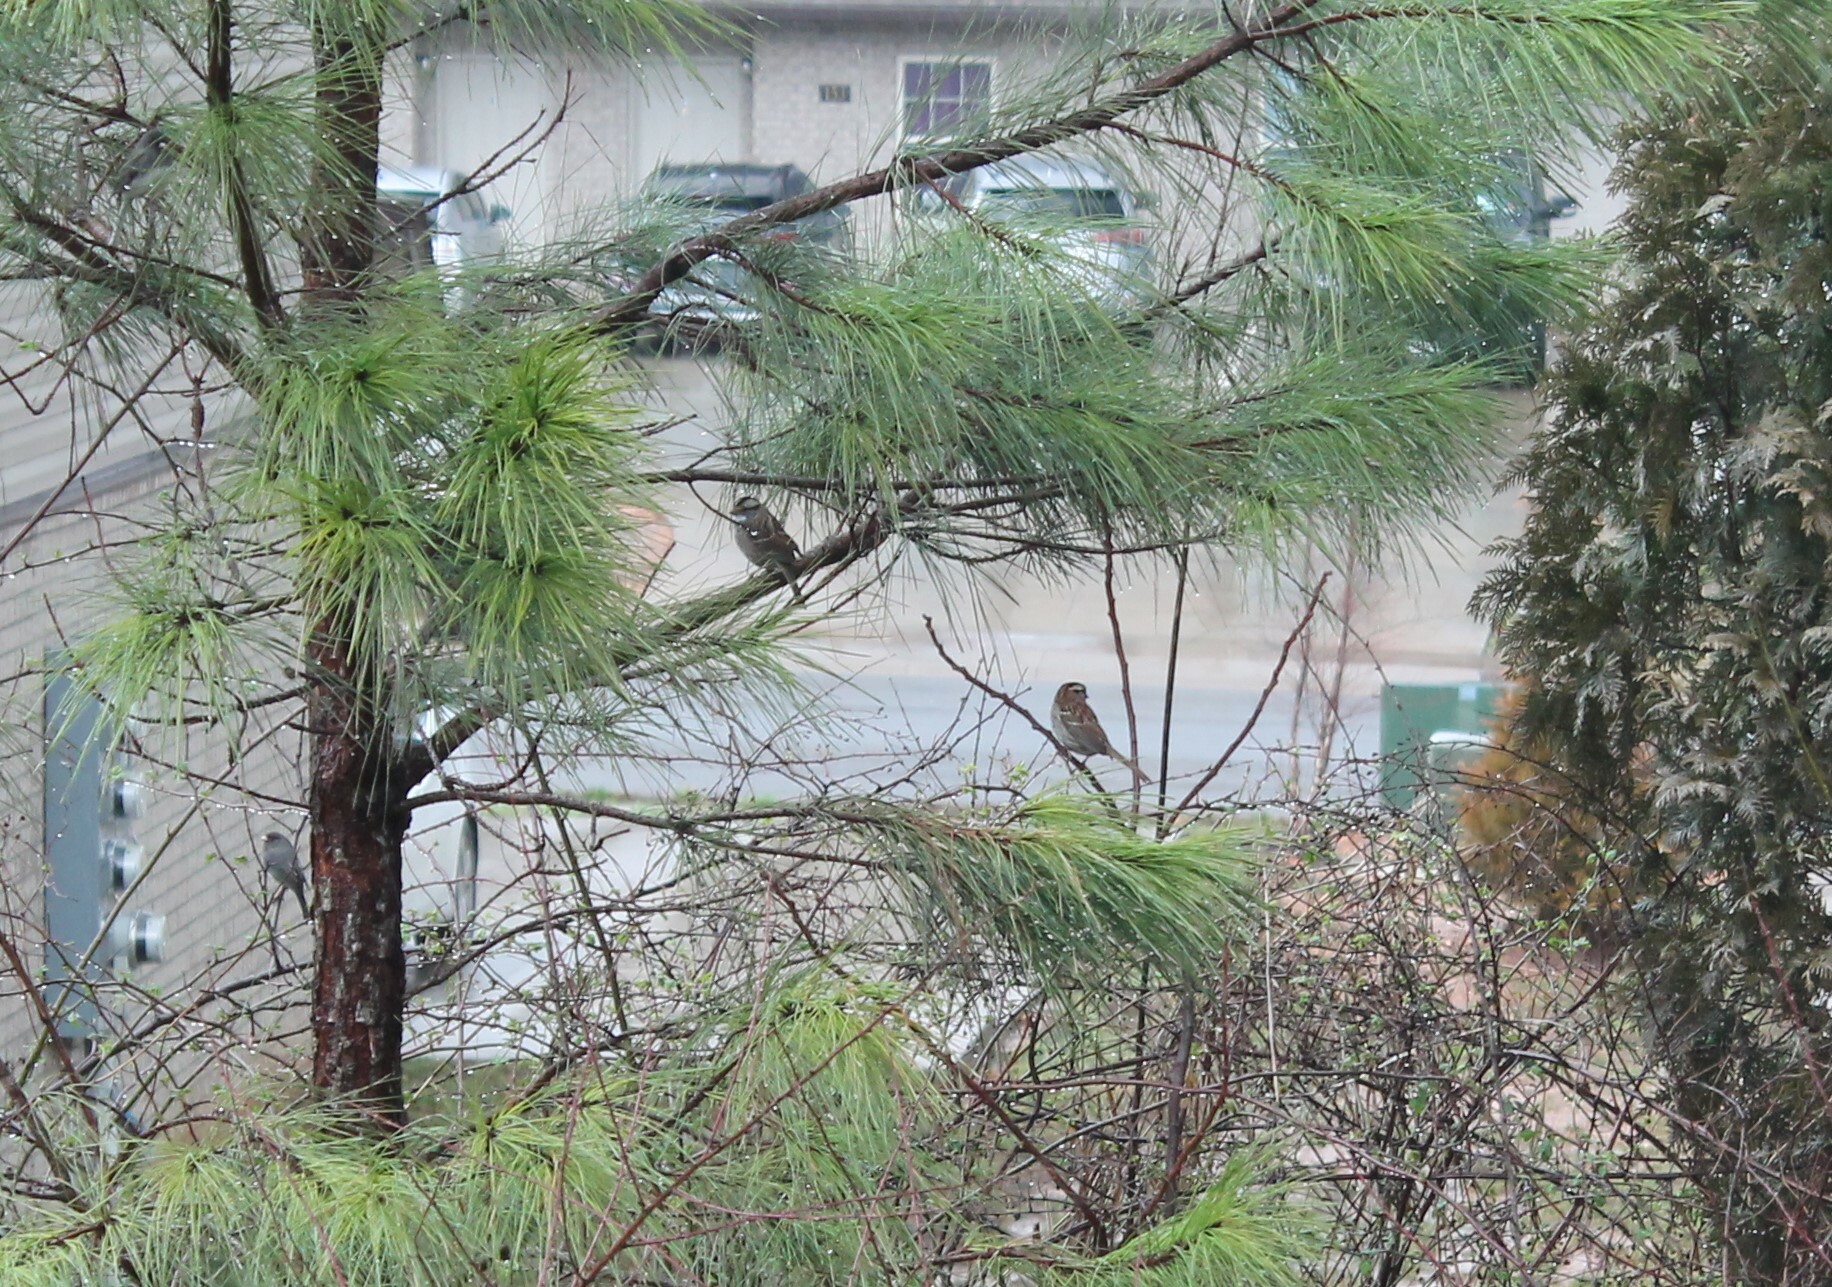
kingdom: Animalia
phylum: Chordata
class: Aves
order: Passeriformes
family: Passerellidae
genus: Zonotrichia
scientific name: Zonotrichia albicollis
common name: White-throated sparrow
